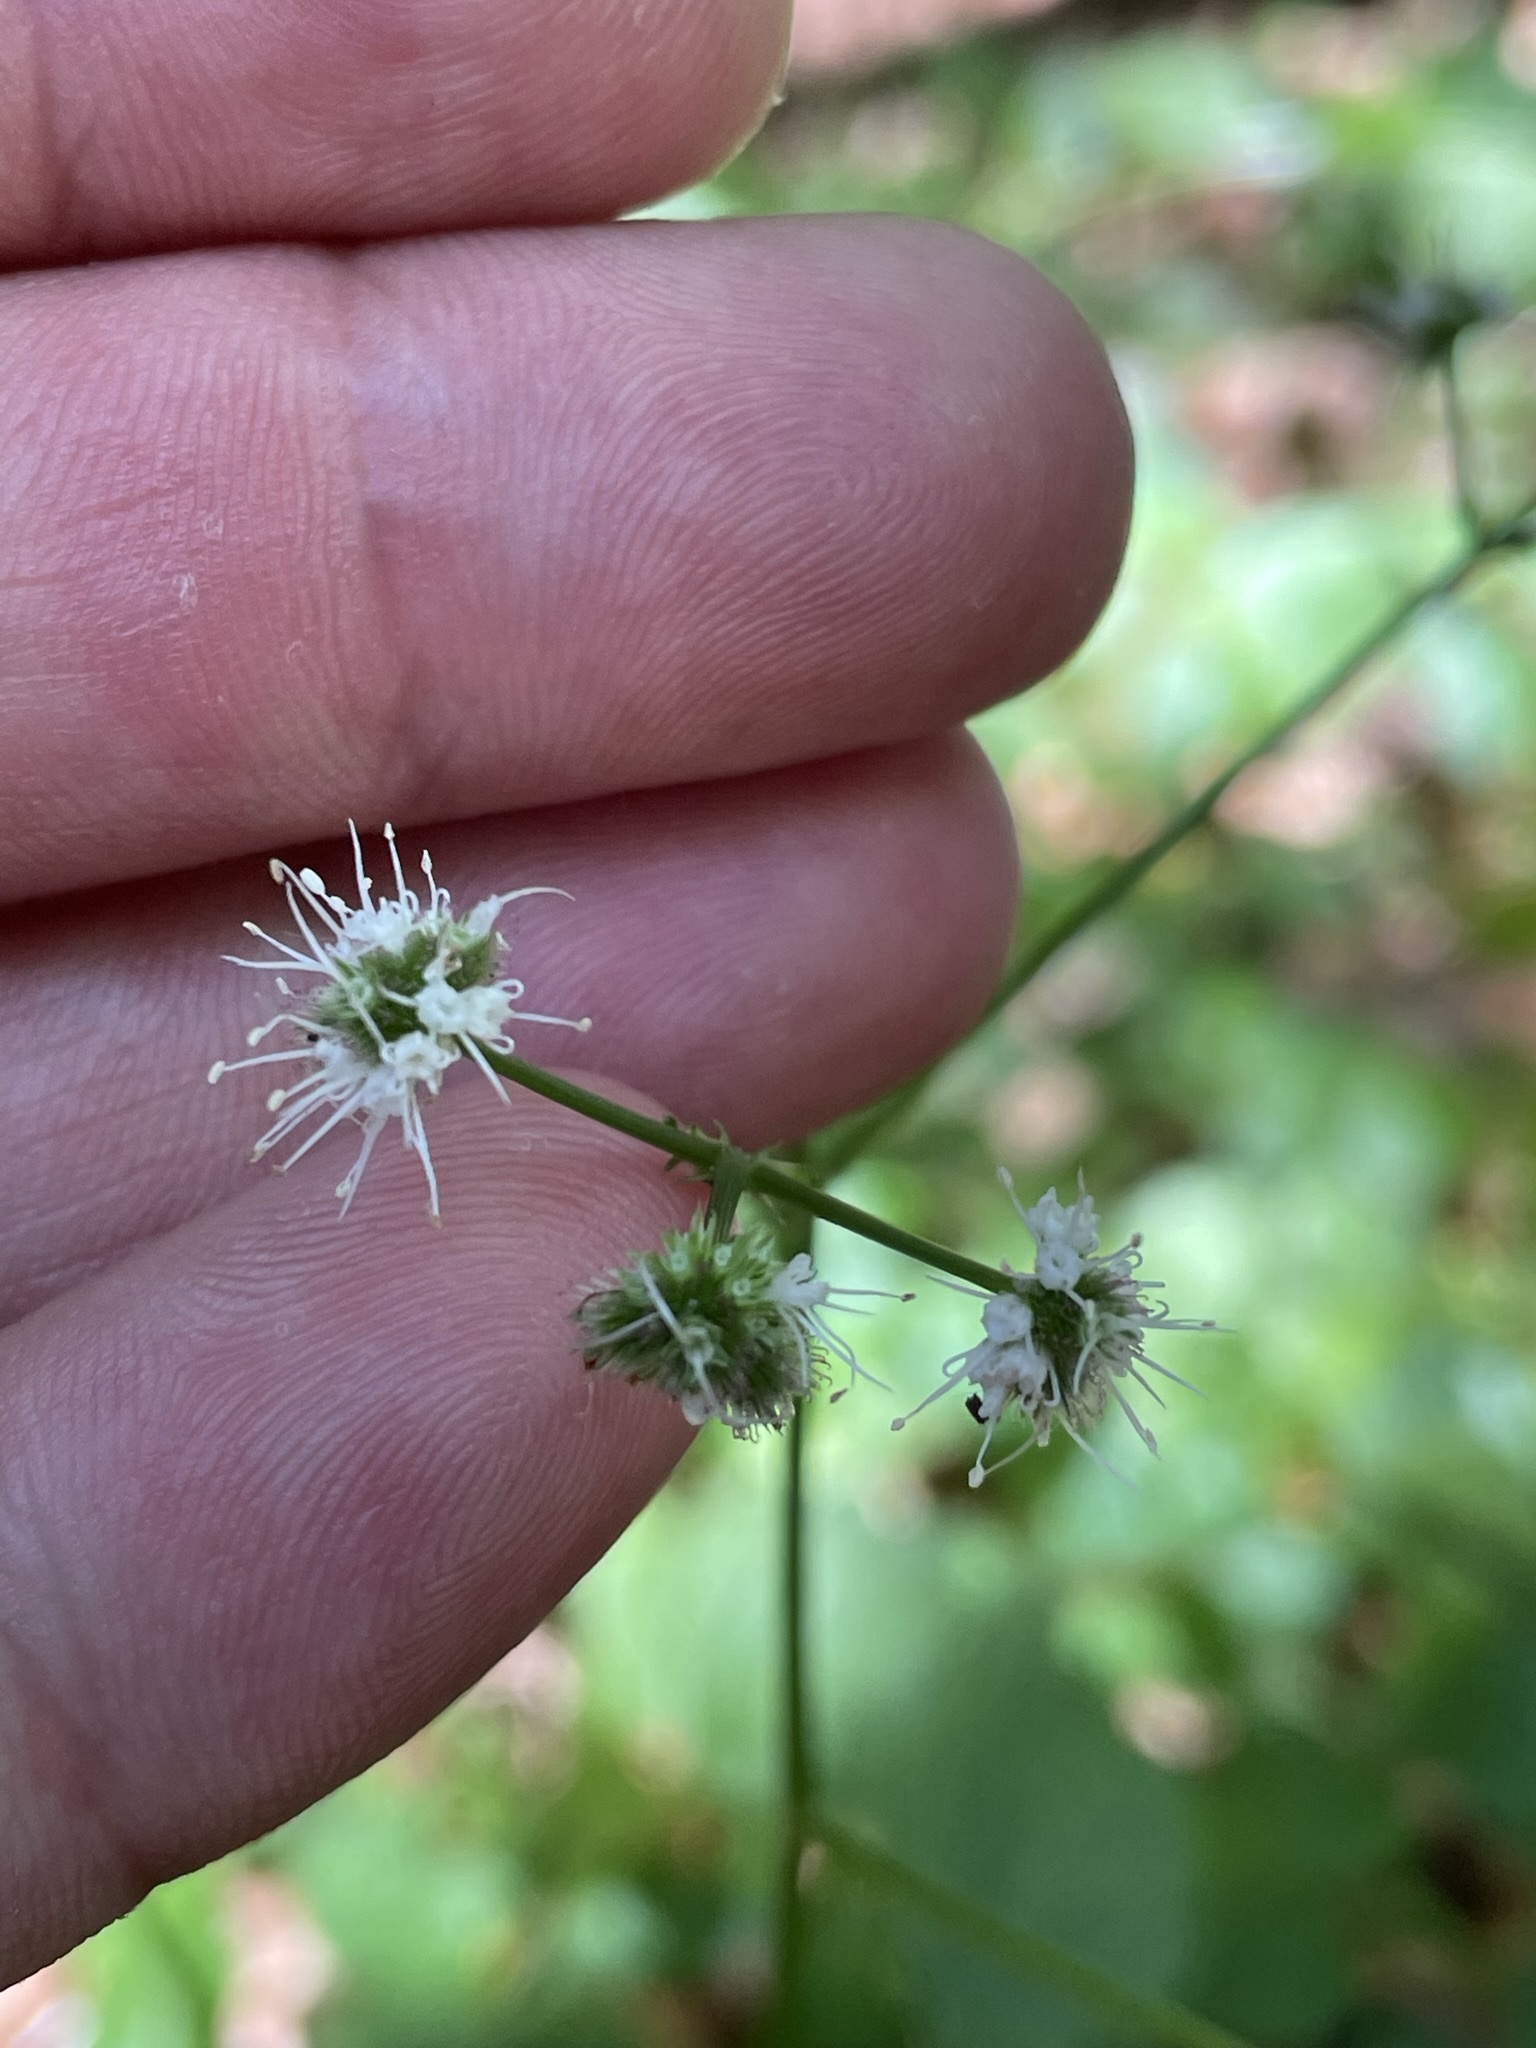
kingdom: Plantae
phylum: Tracheophyta
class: Magnoliopsida
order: Apiales
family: Apiaceae
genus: Sanicula
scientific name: Sanicula europaea
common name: Sanicle
